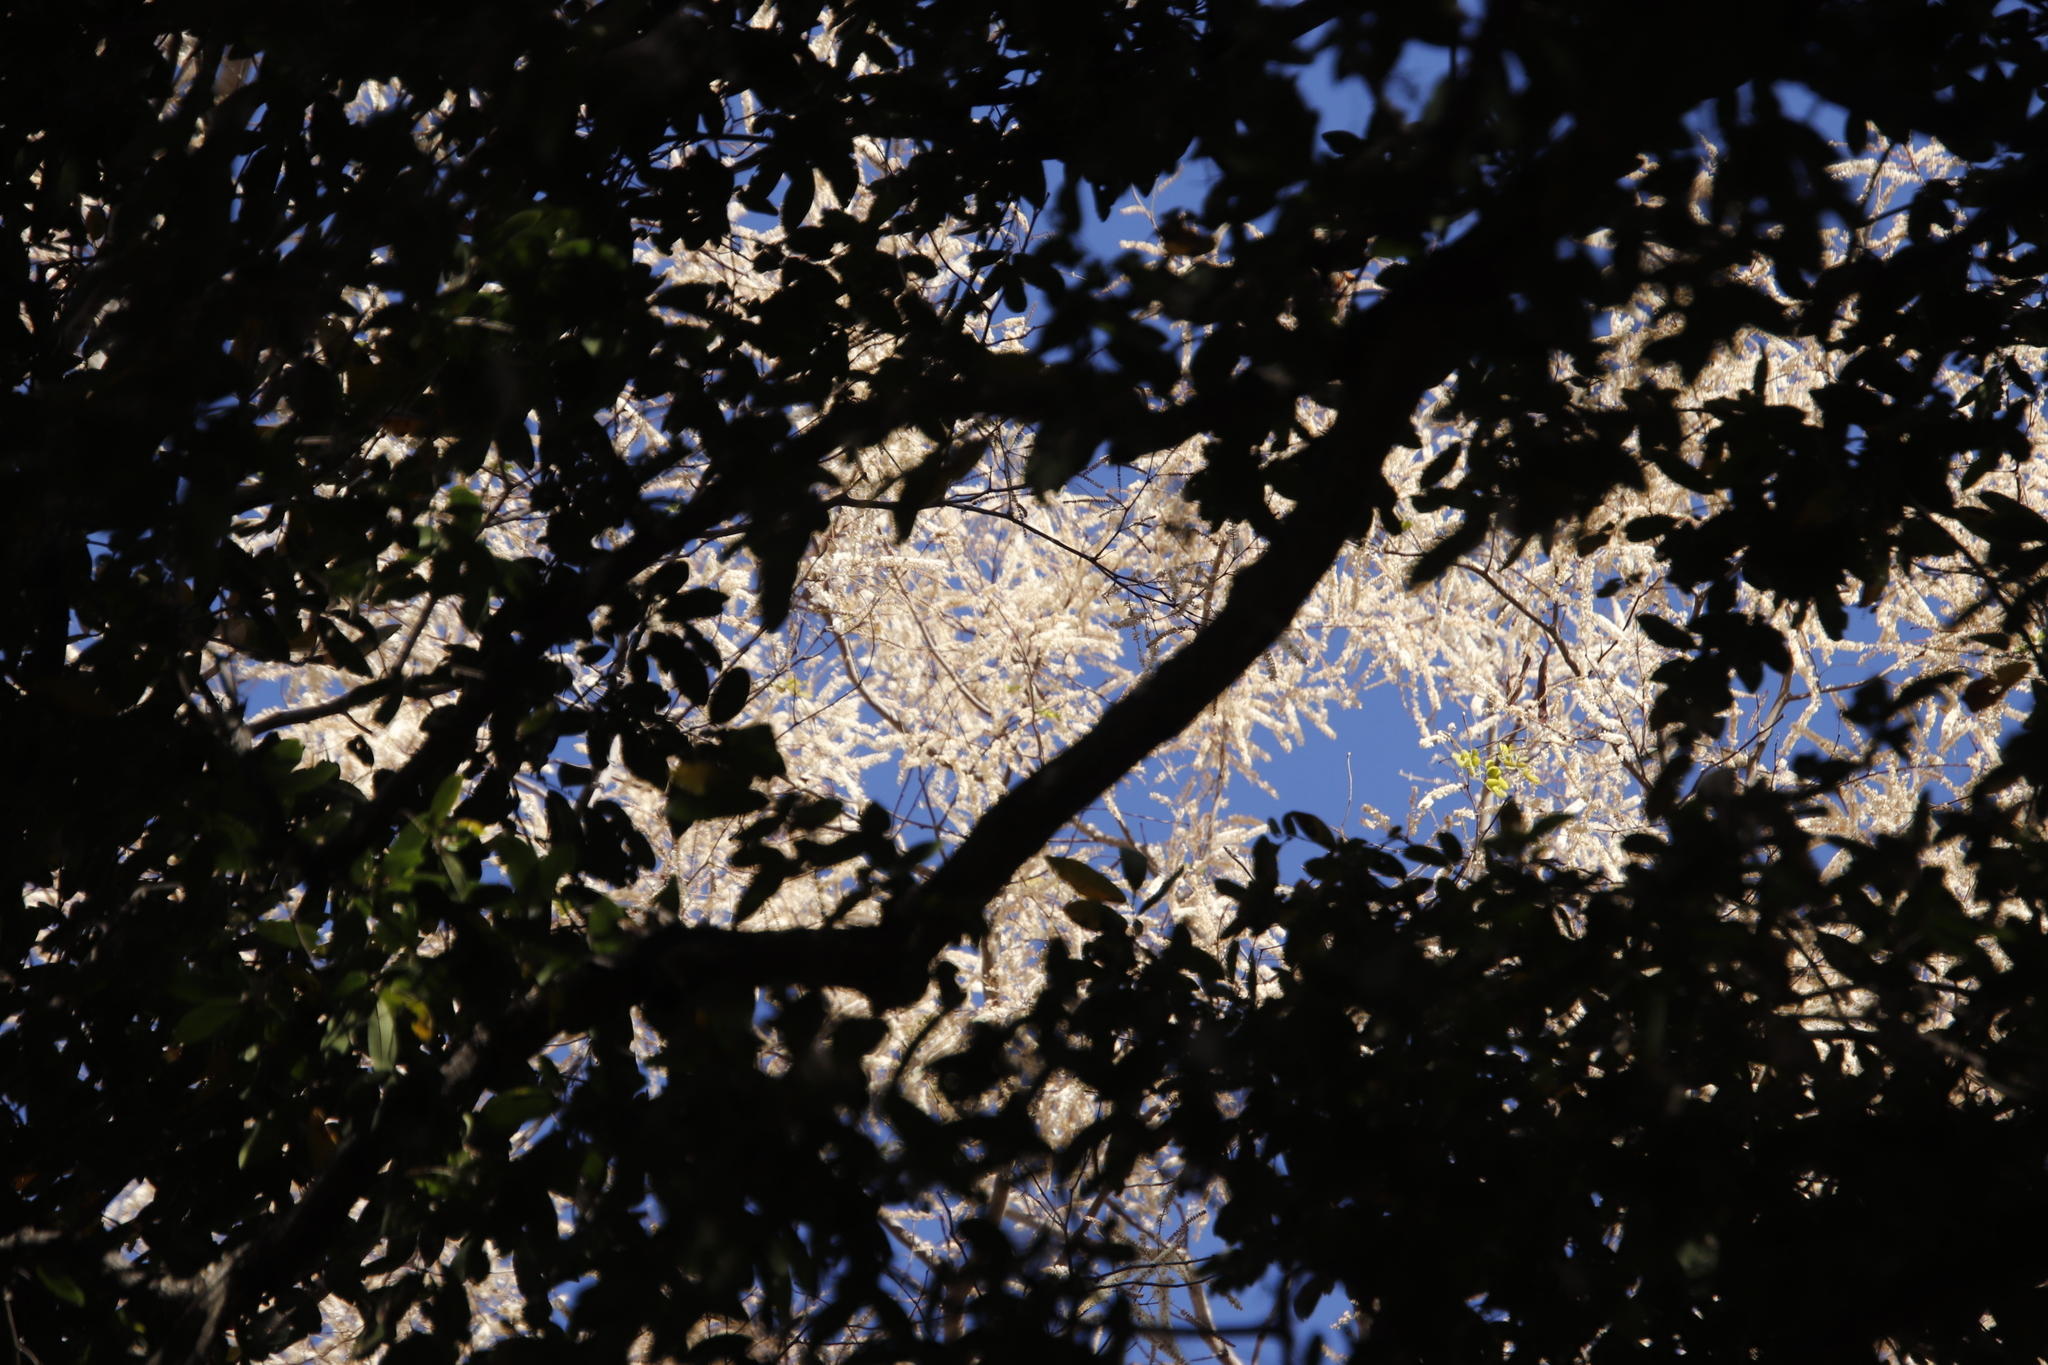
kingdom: Plantae
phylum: Tracheophyta
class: Magnoliopsida
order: Fabales
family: Fabaceae
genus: Senegalia
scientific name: Senegalia nigrescens
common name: Knobthorn
